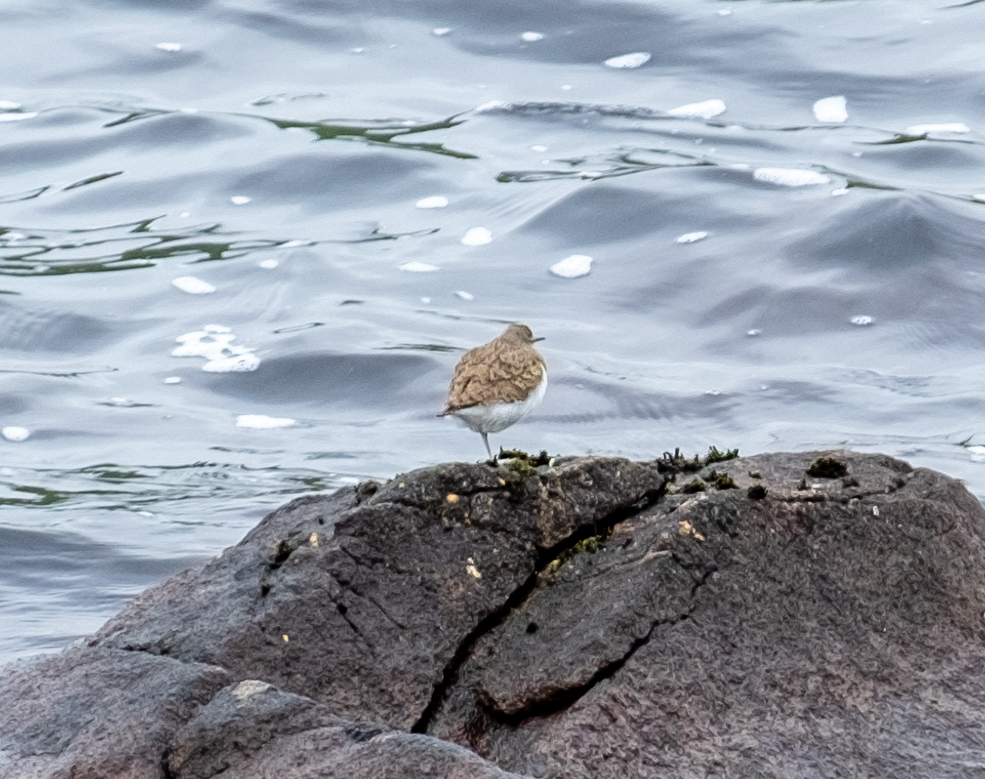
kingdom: Animalia
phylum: Chordata
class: Aves
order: Charadriiformes
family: Scolopacidae
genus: Actitis
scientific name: Actitis hypoleucos
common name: Common sandpiper
